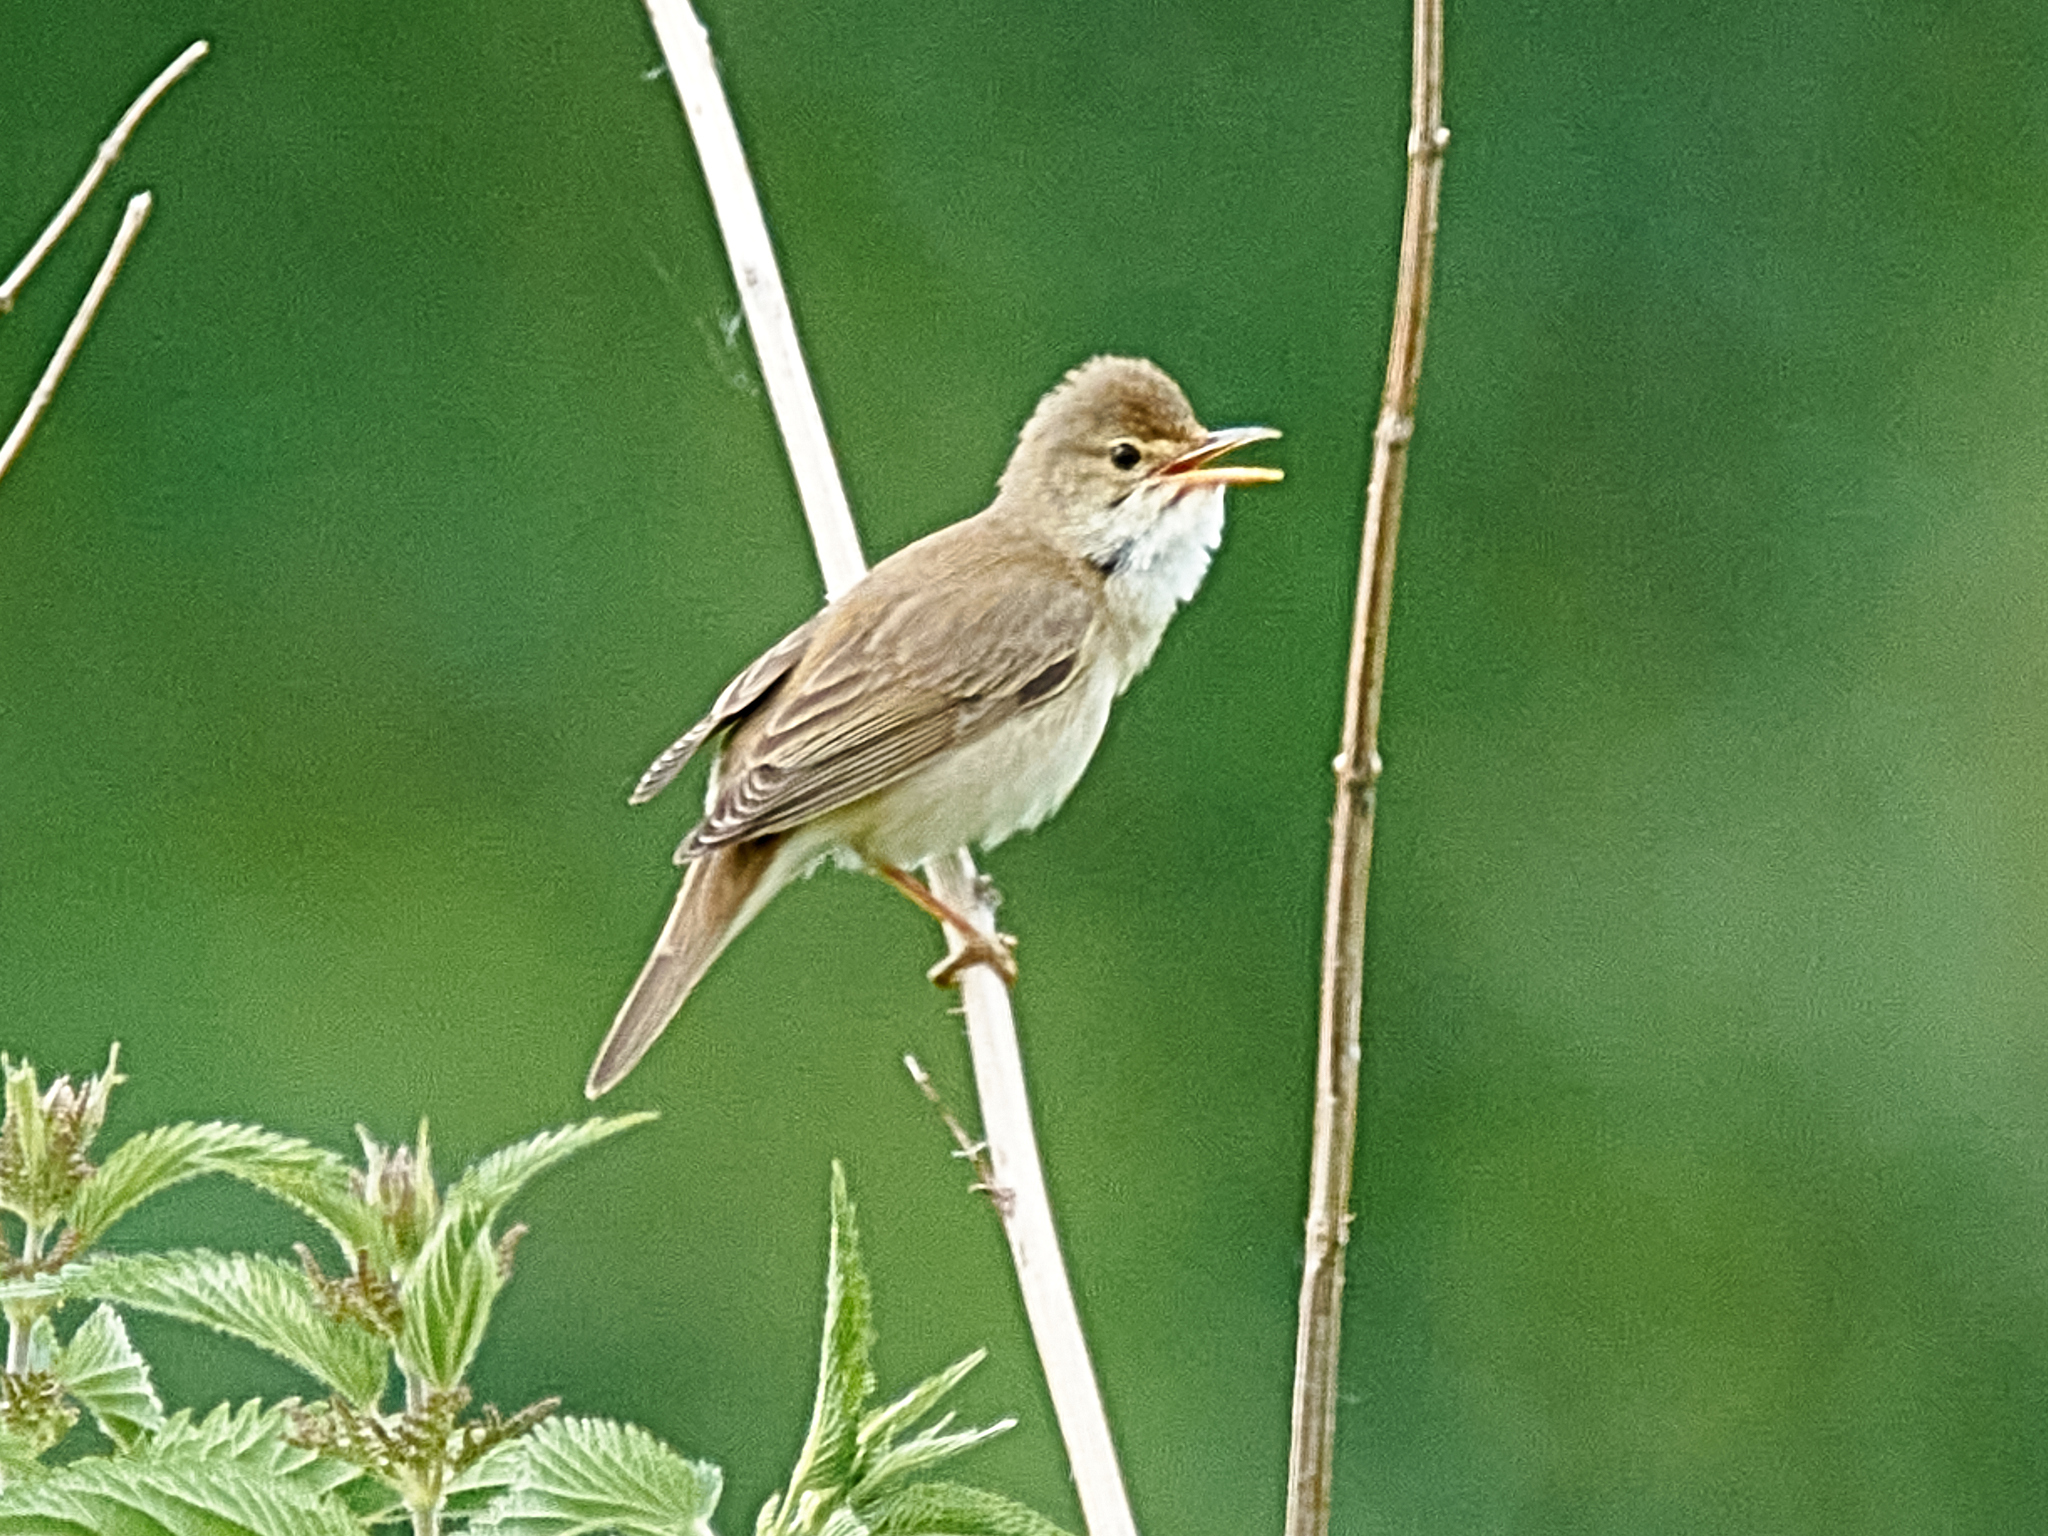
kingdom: Animalia
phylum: Chordata
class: Aves
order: Passeriformes
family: Acrocephalidae
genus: Acrocephalus
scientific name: Acrocephalus palustris
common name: Marsh warbler
